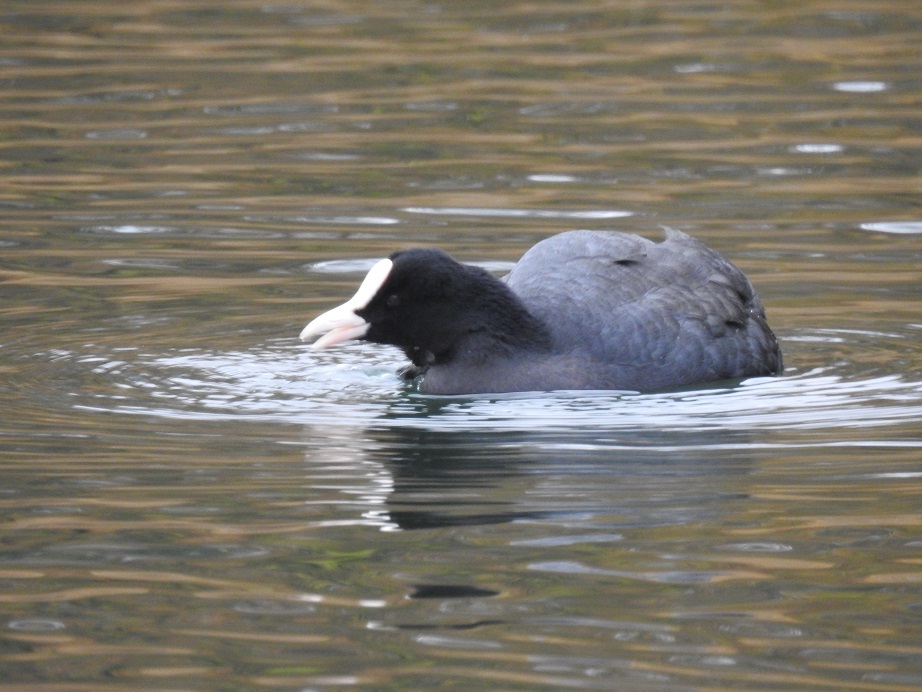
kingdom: Animalia
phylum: Chordata
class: Aves
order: Gruiformes
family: Rallidae
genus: Fulica
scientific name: Fulica atra
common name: Eurasian coot
